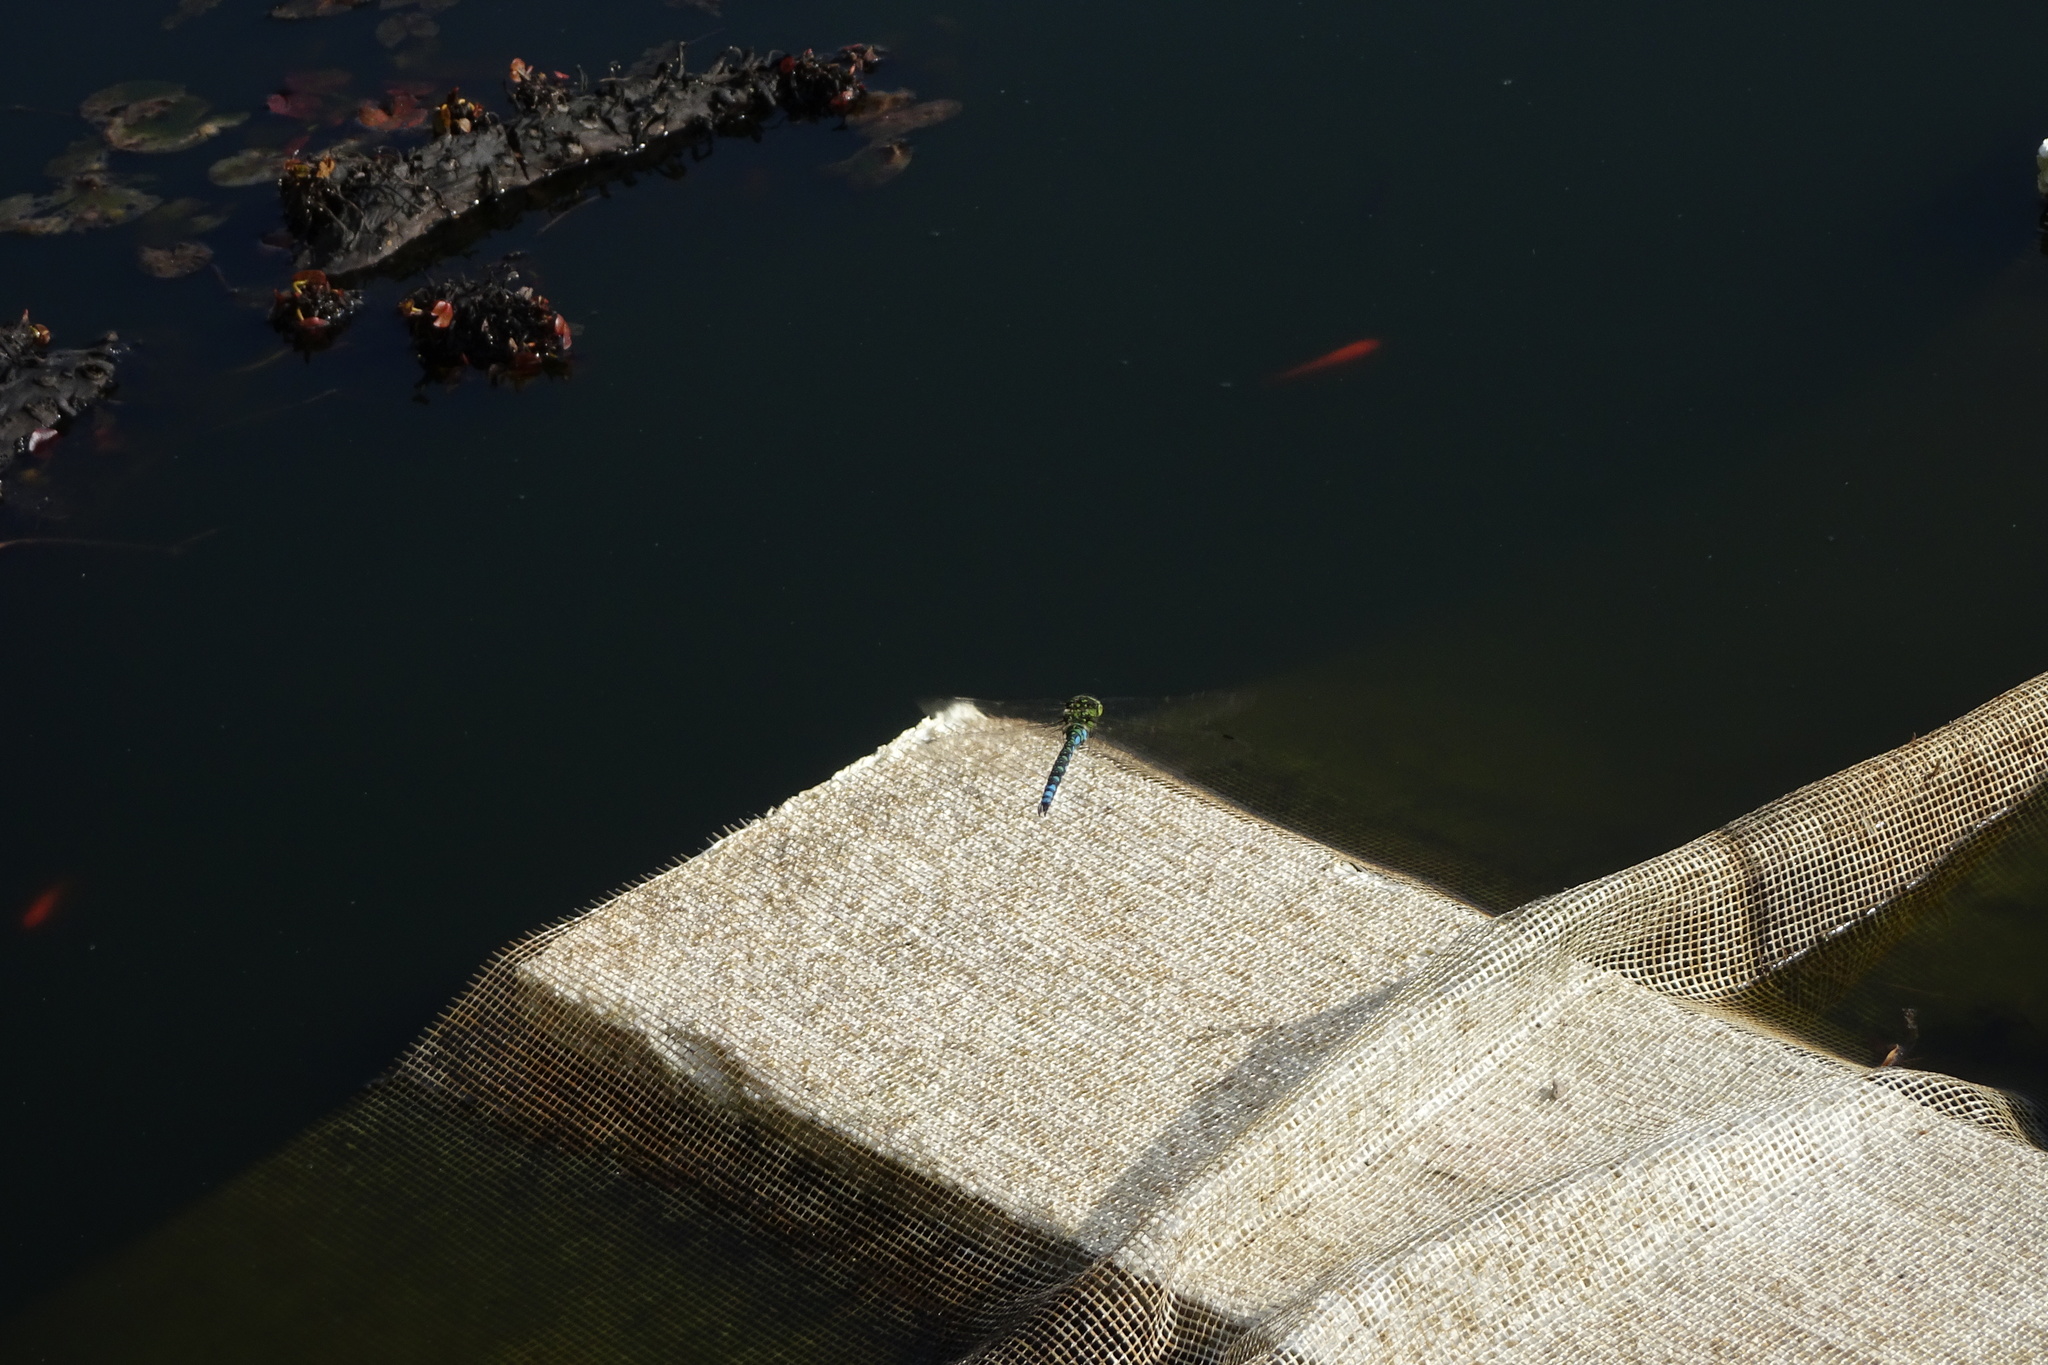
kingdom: Animalia
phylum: Arthropoda
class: Insecta
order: Odonata
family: Aeshnidae
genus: Aeshna
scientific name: Aeshna cyanea
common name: Southern hawker
